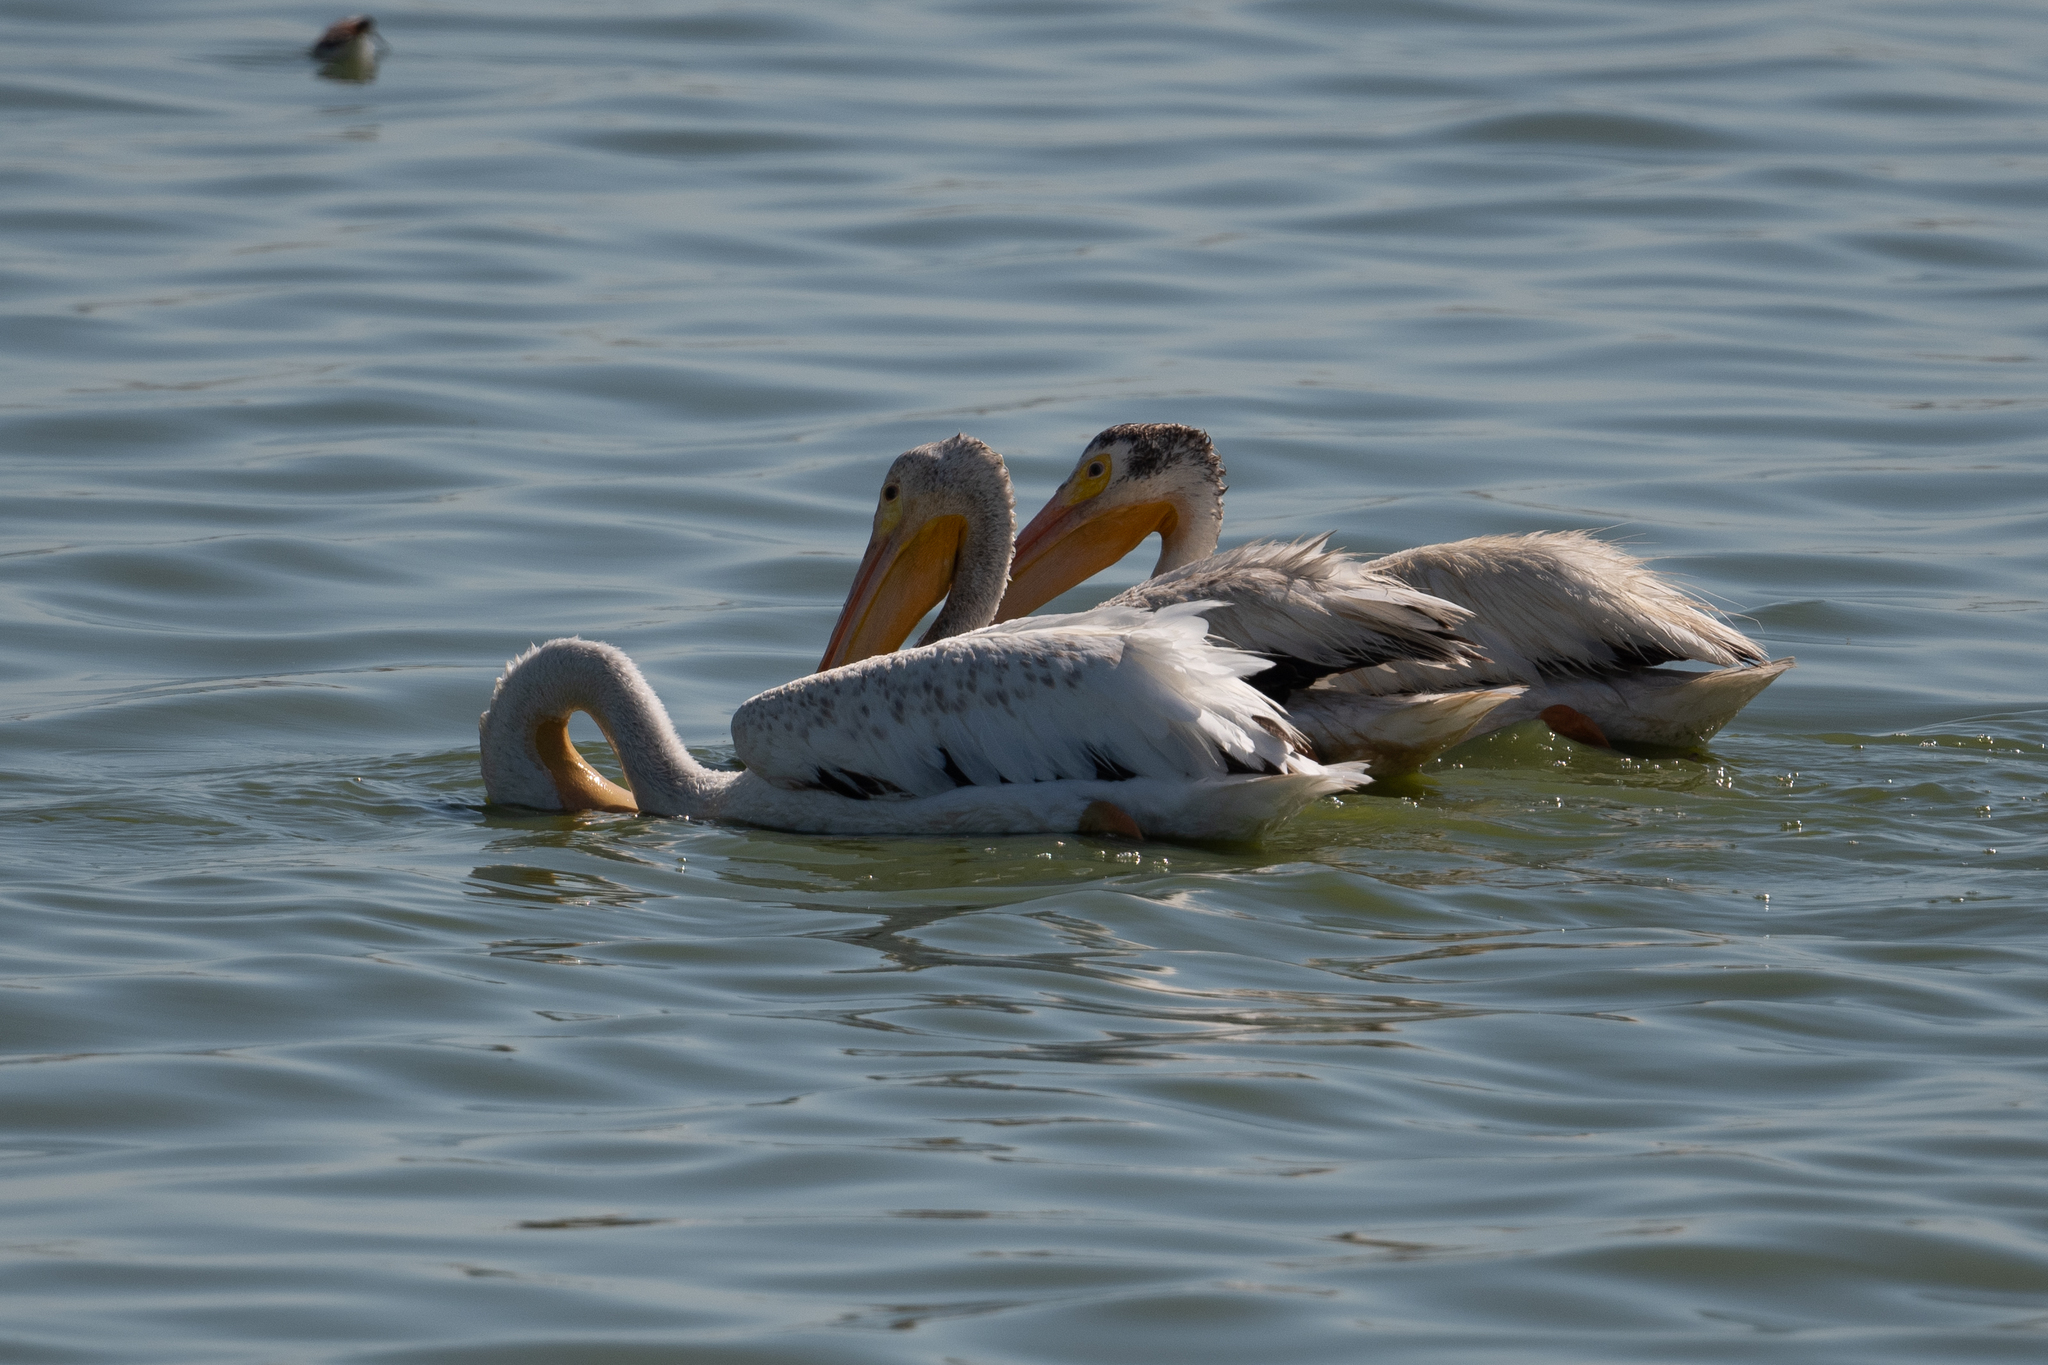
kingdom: Animalia
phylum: Chordata
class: Aves
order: Pelecaniformes
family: Pelecanidae
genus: Pelecanus
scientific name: Pelecanus erythrorhynchos
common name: American white pelican
